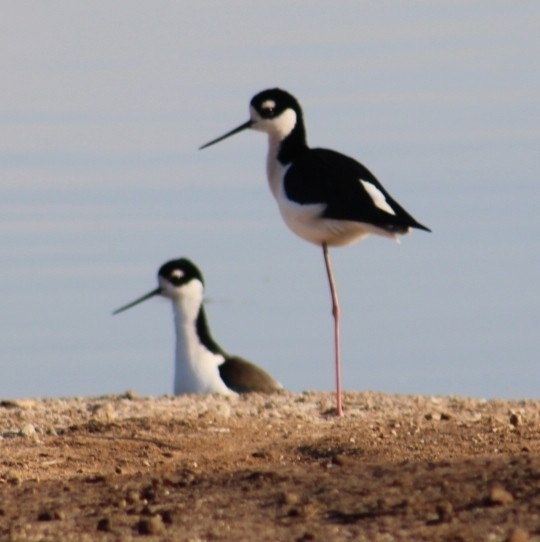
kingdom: Animalia
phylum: Chordata
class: Aves
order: Charadriiformes
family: Recurvirostridae
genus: Himantopus
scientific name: Himantopus mexicanus
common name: Black-necked stilt
